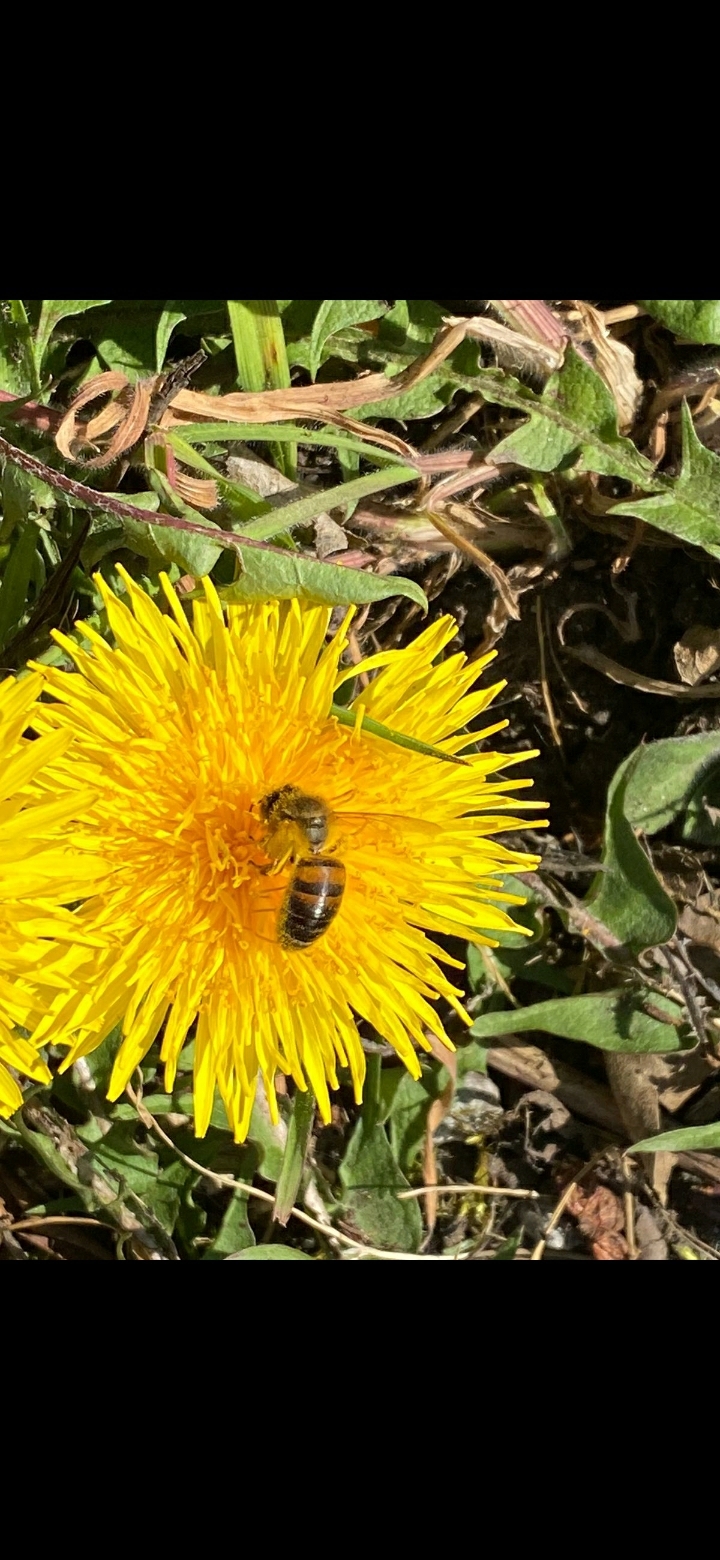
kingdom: Animalia
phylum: Arthropoda
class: Insecta
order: Hymenoptera
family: Apidae
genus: Apis
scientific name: Apis mellifera
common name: Honey bee
